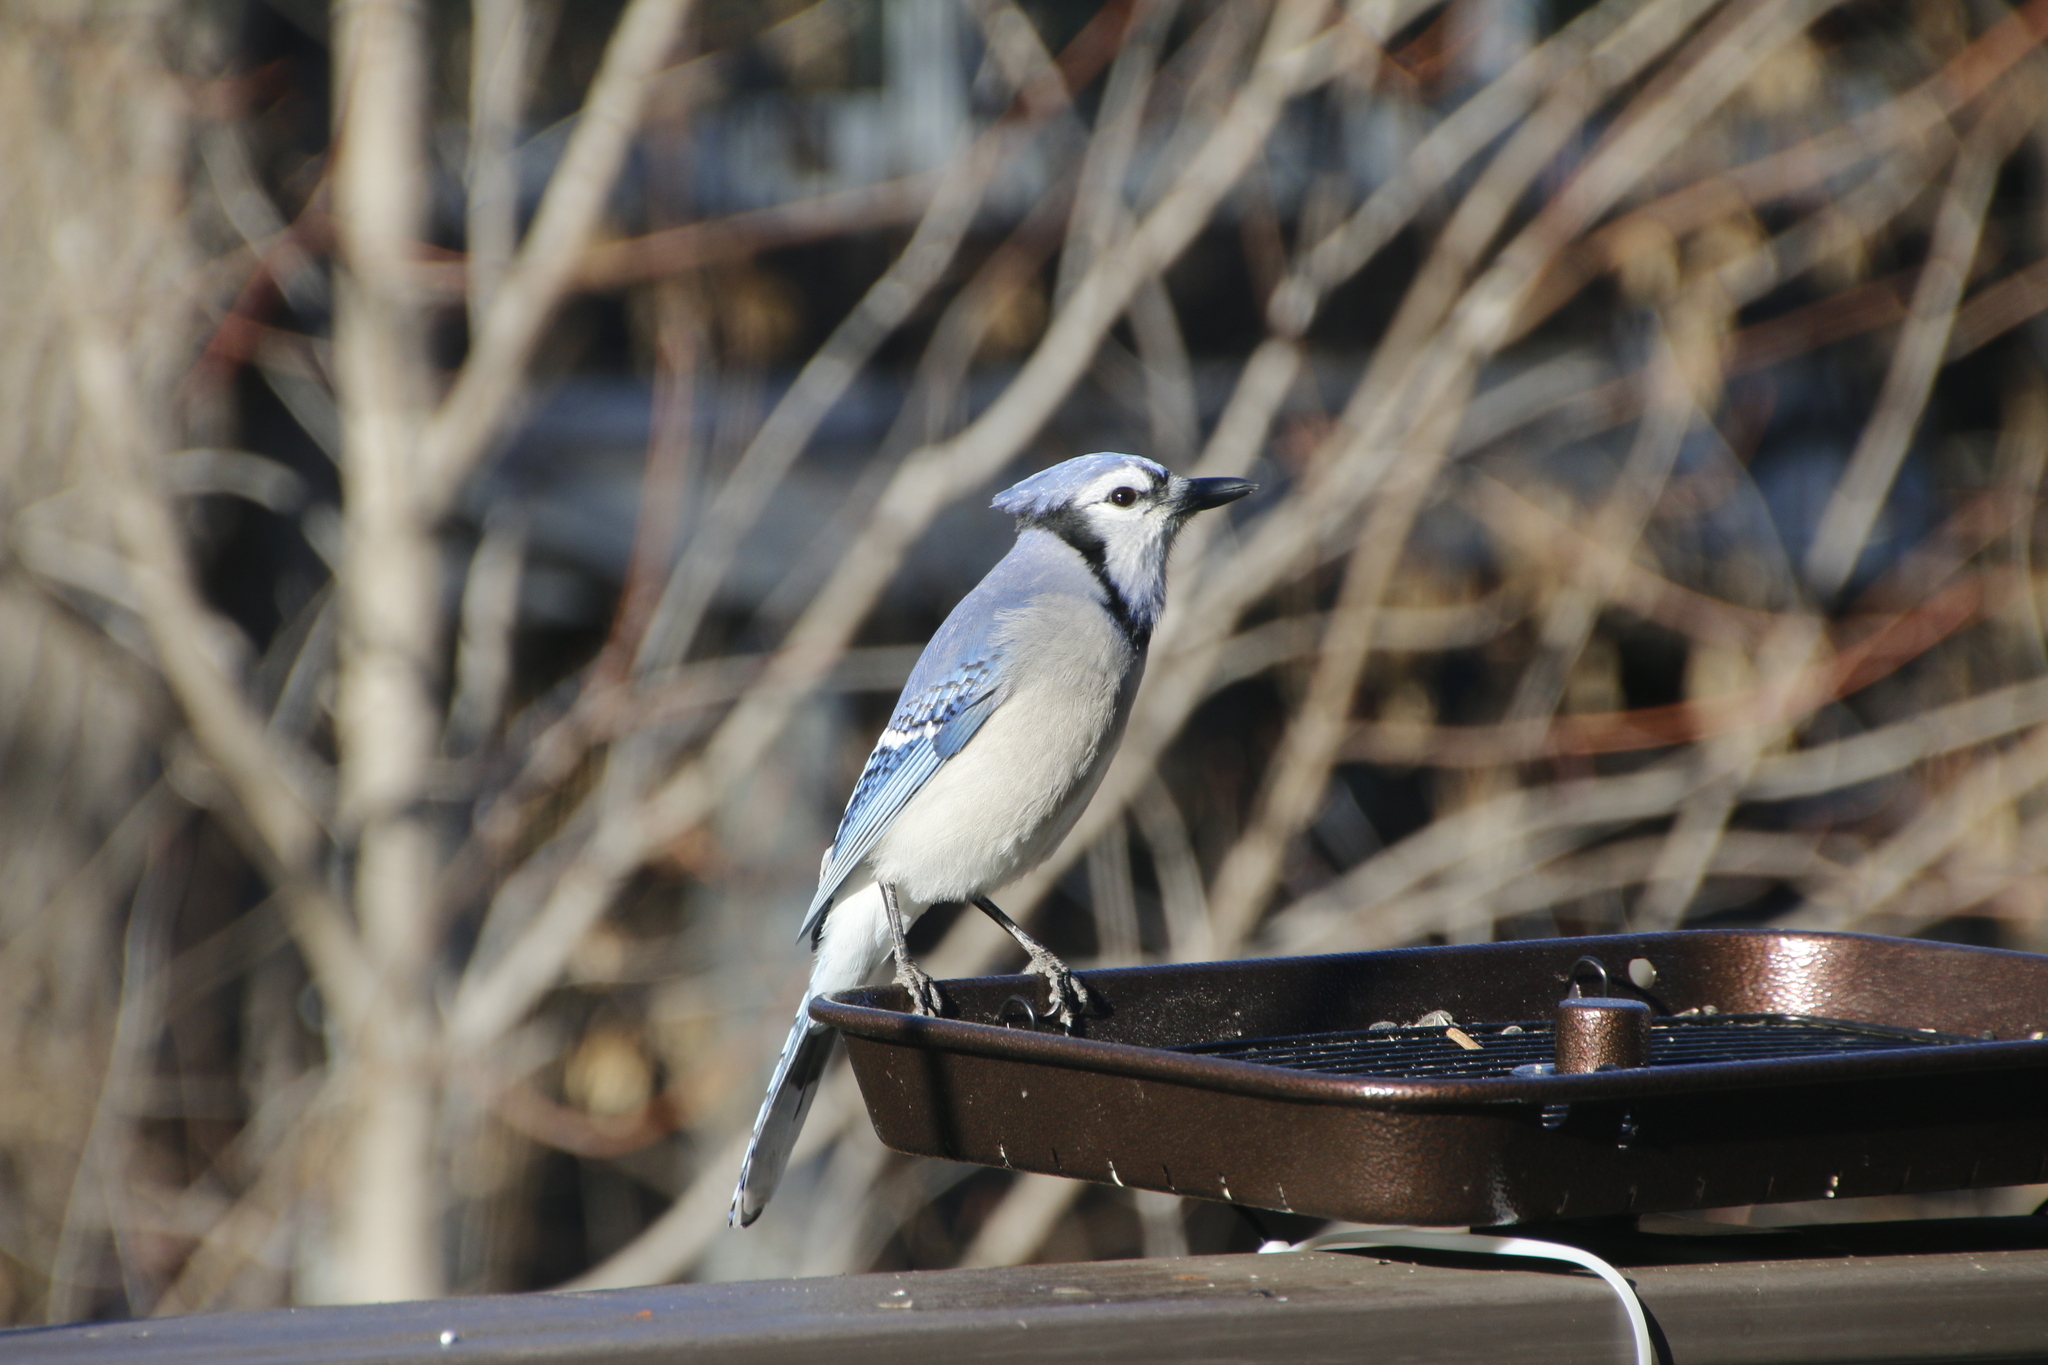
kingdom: Animalia
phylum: Chordata
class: Aves
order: Passeriformes
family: Corvidae
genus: Cyanocitta
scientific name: Cyanocitta cristata
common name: Blue jay
